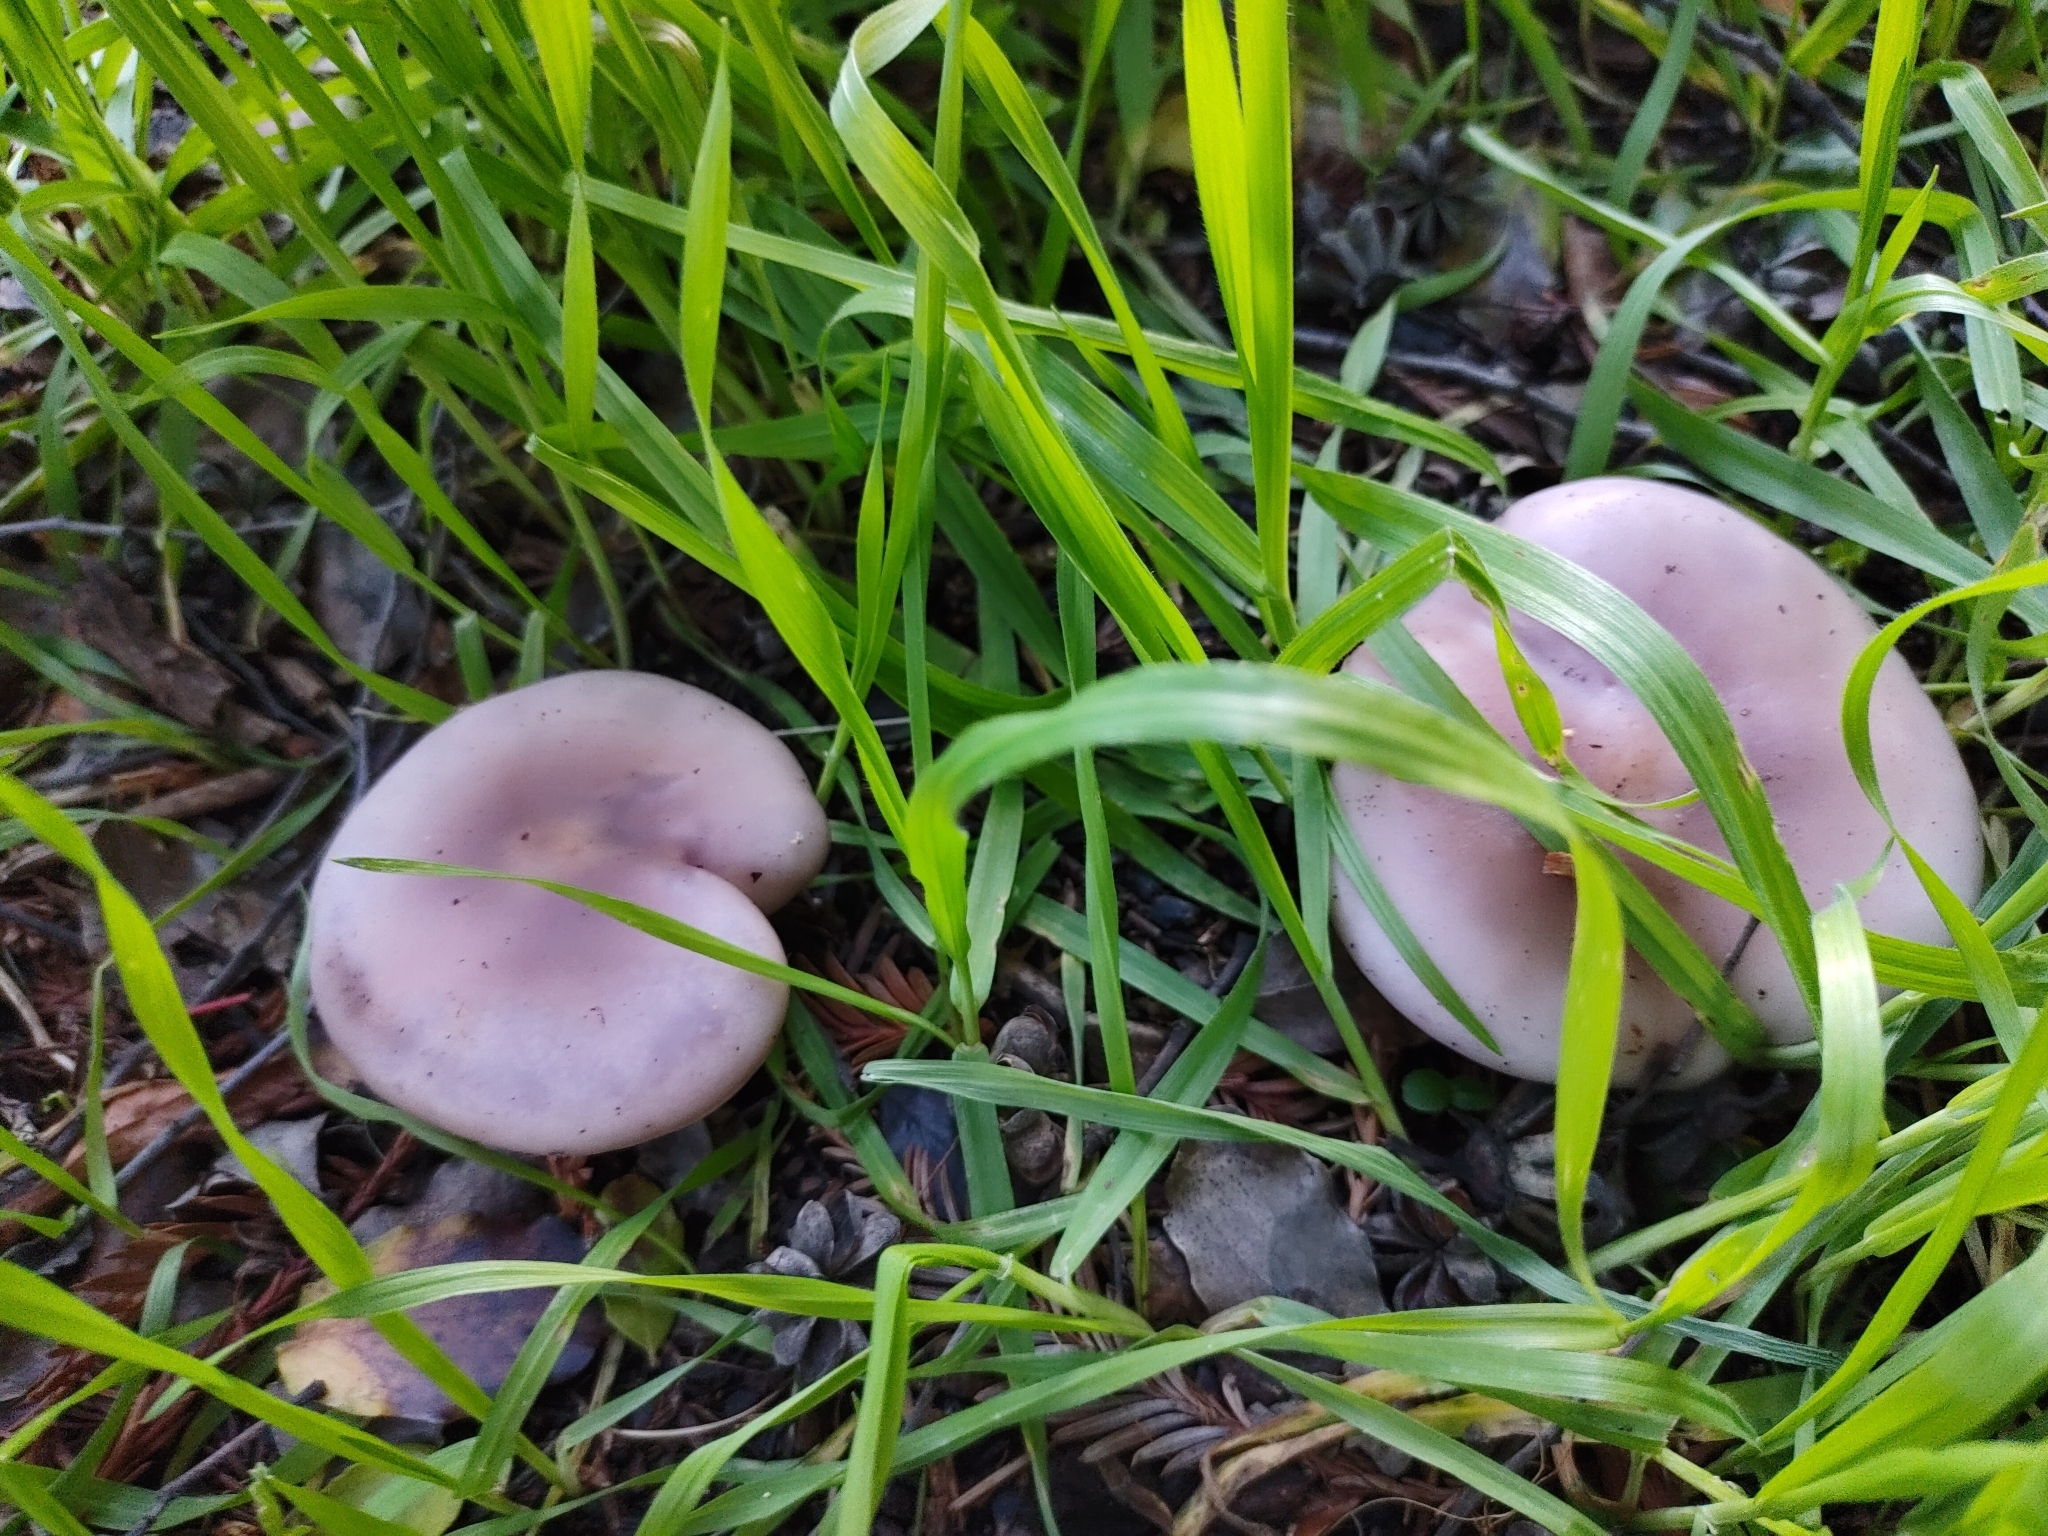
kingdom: Fungi
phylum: Basidiomycota
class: Agaricomycetes
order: Agaricales
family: Tricholomataceae
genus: Collybia
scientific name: Collybia
